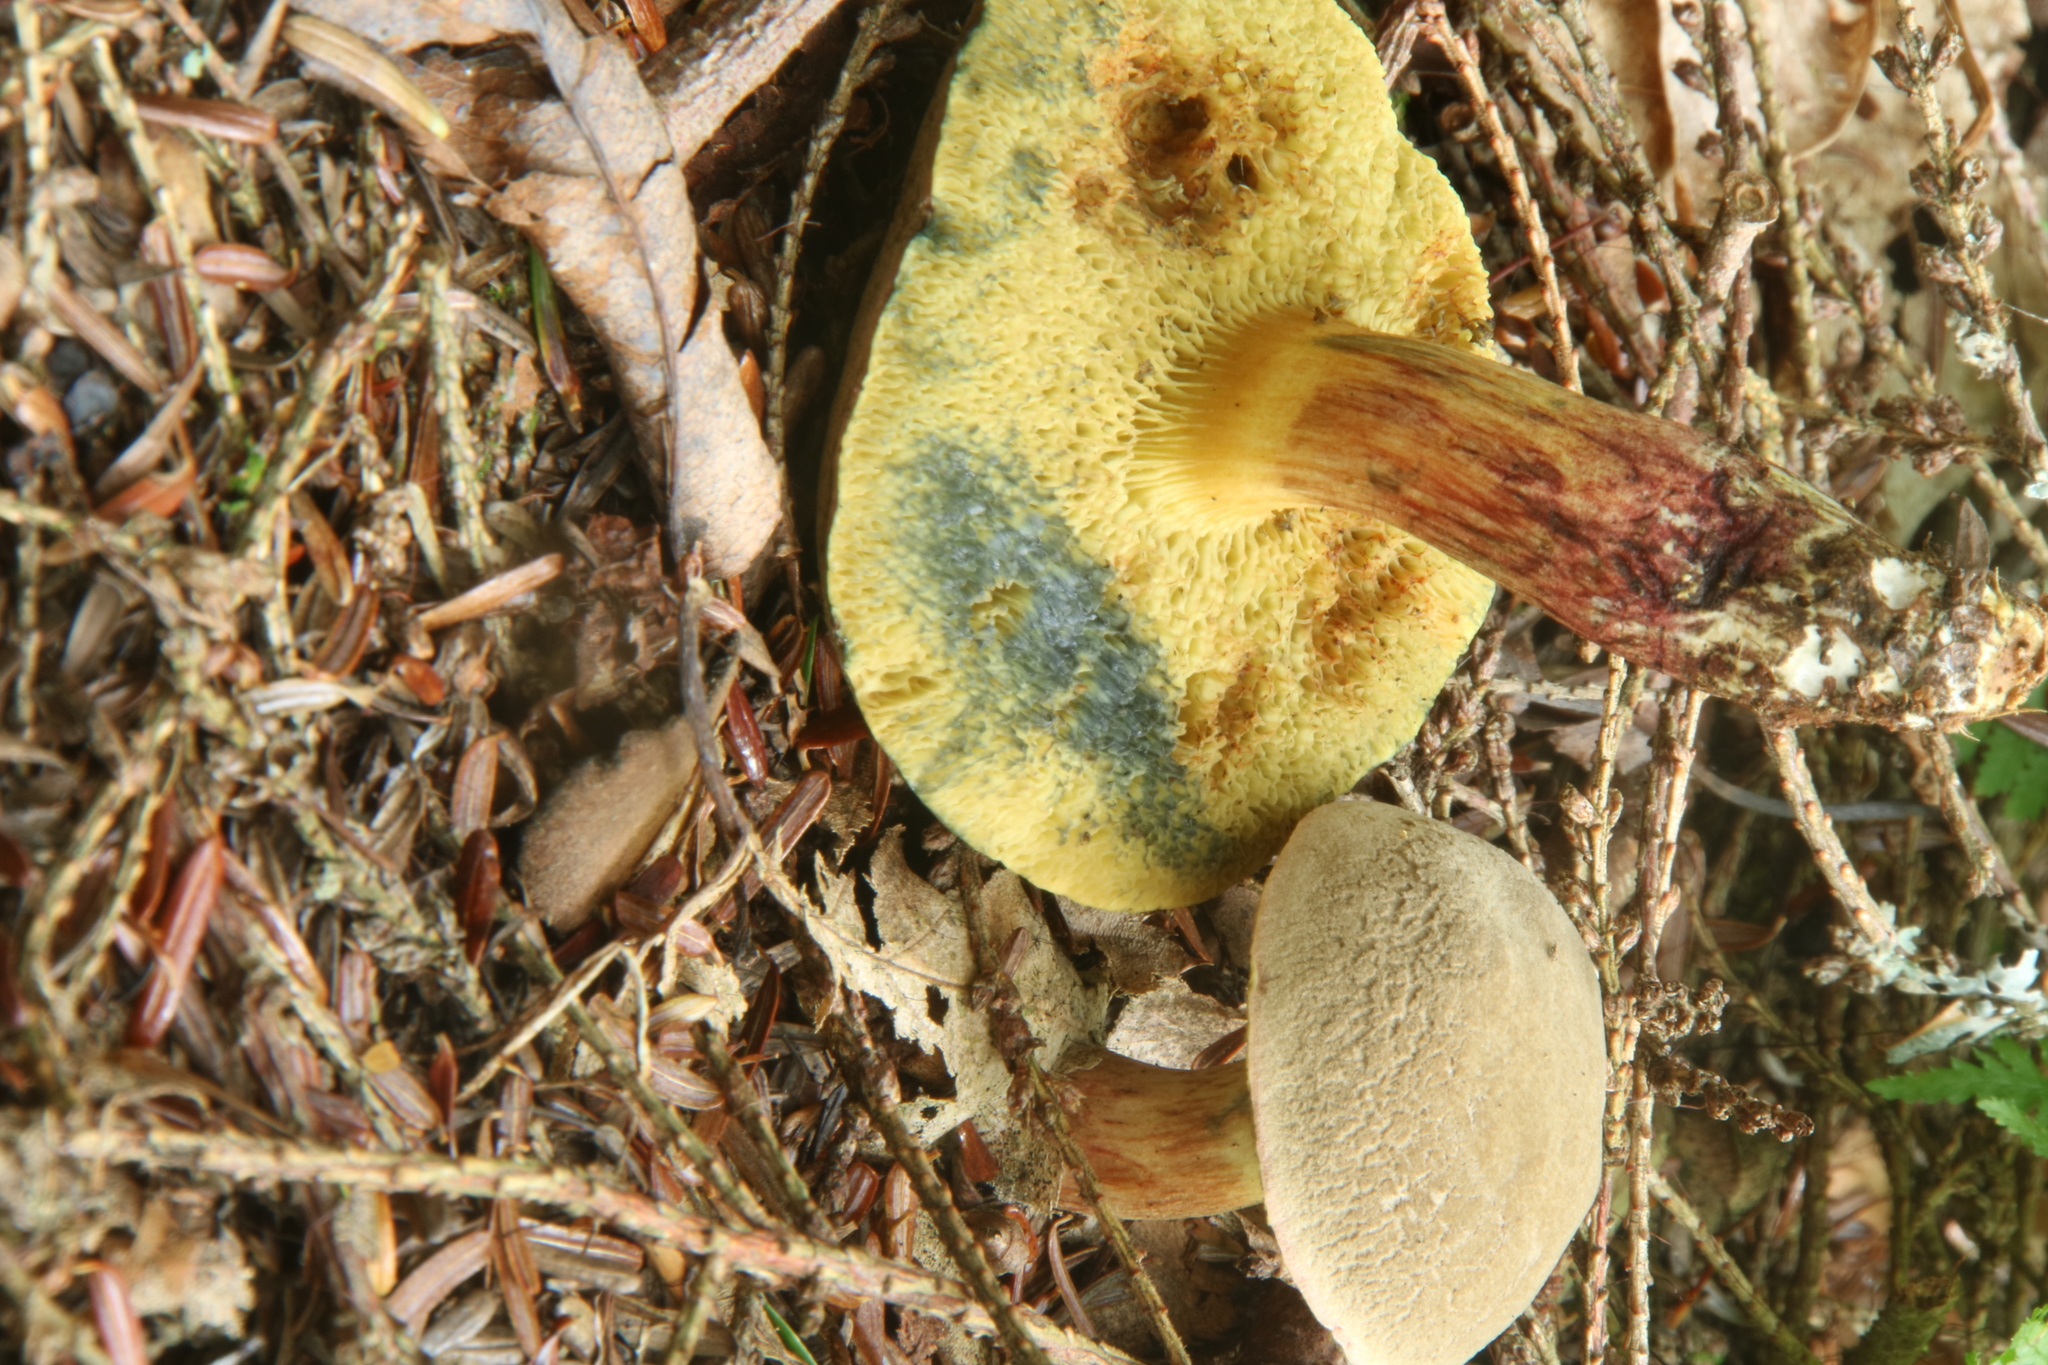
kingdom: Fungi
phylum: Basidiomycota
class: Agaricomycetes
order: Boletales
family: Boletaceae
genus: Xerocomellus
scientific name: Xerocomellus chrysenteron
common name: Red-cracking bolete
